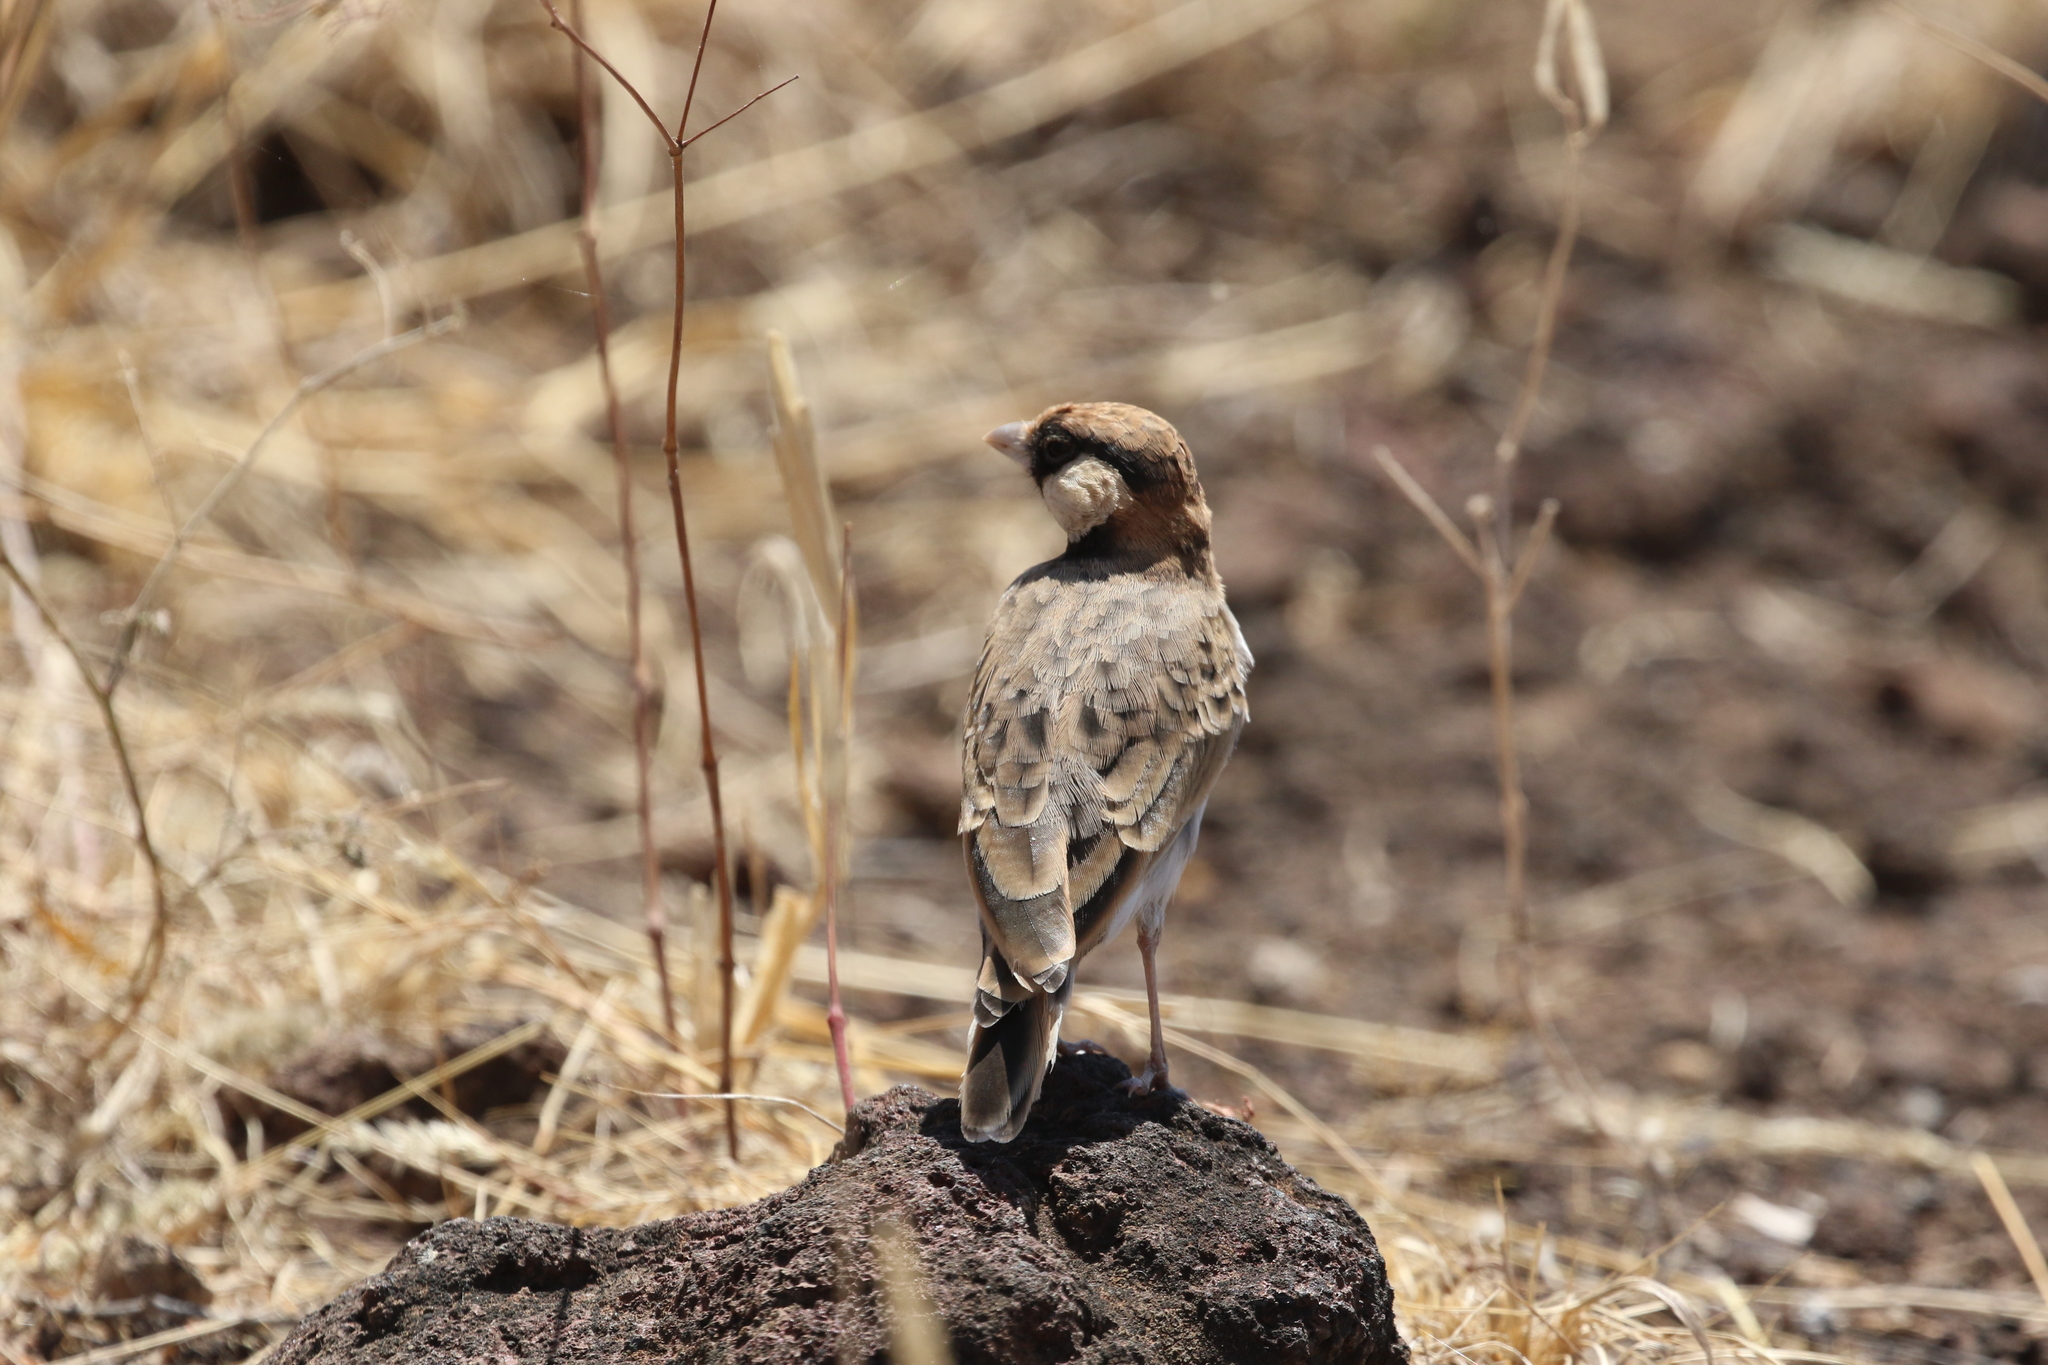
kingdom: Animalia
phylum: Chordata
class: Aves
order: Passeriformes
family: Alaudidae
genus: Eremopterix
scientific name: Eremopterix leucopareia
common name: Fischer's sparrow-lark
